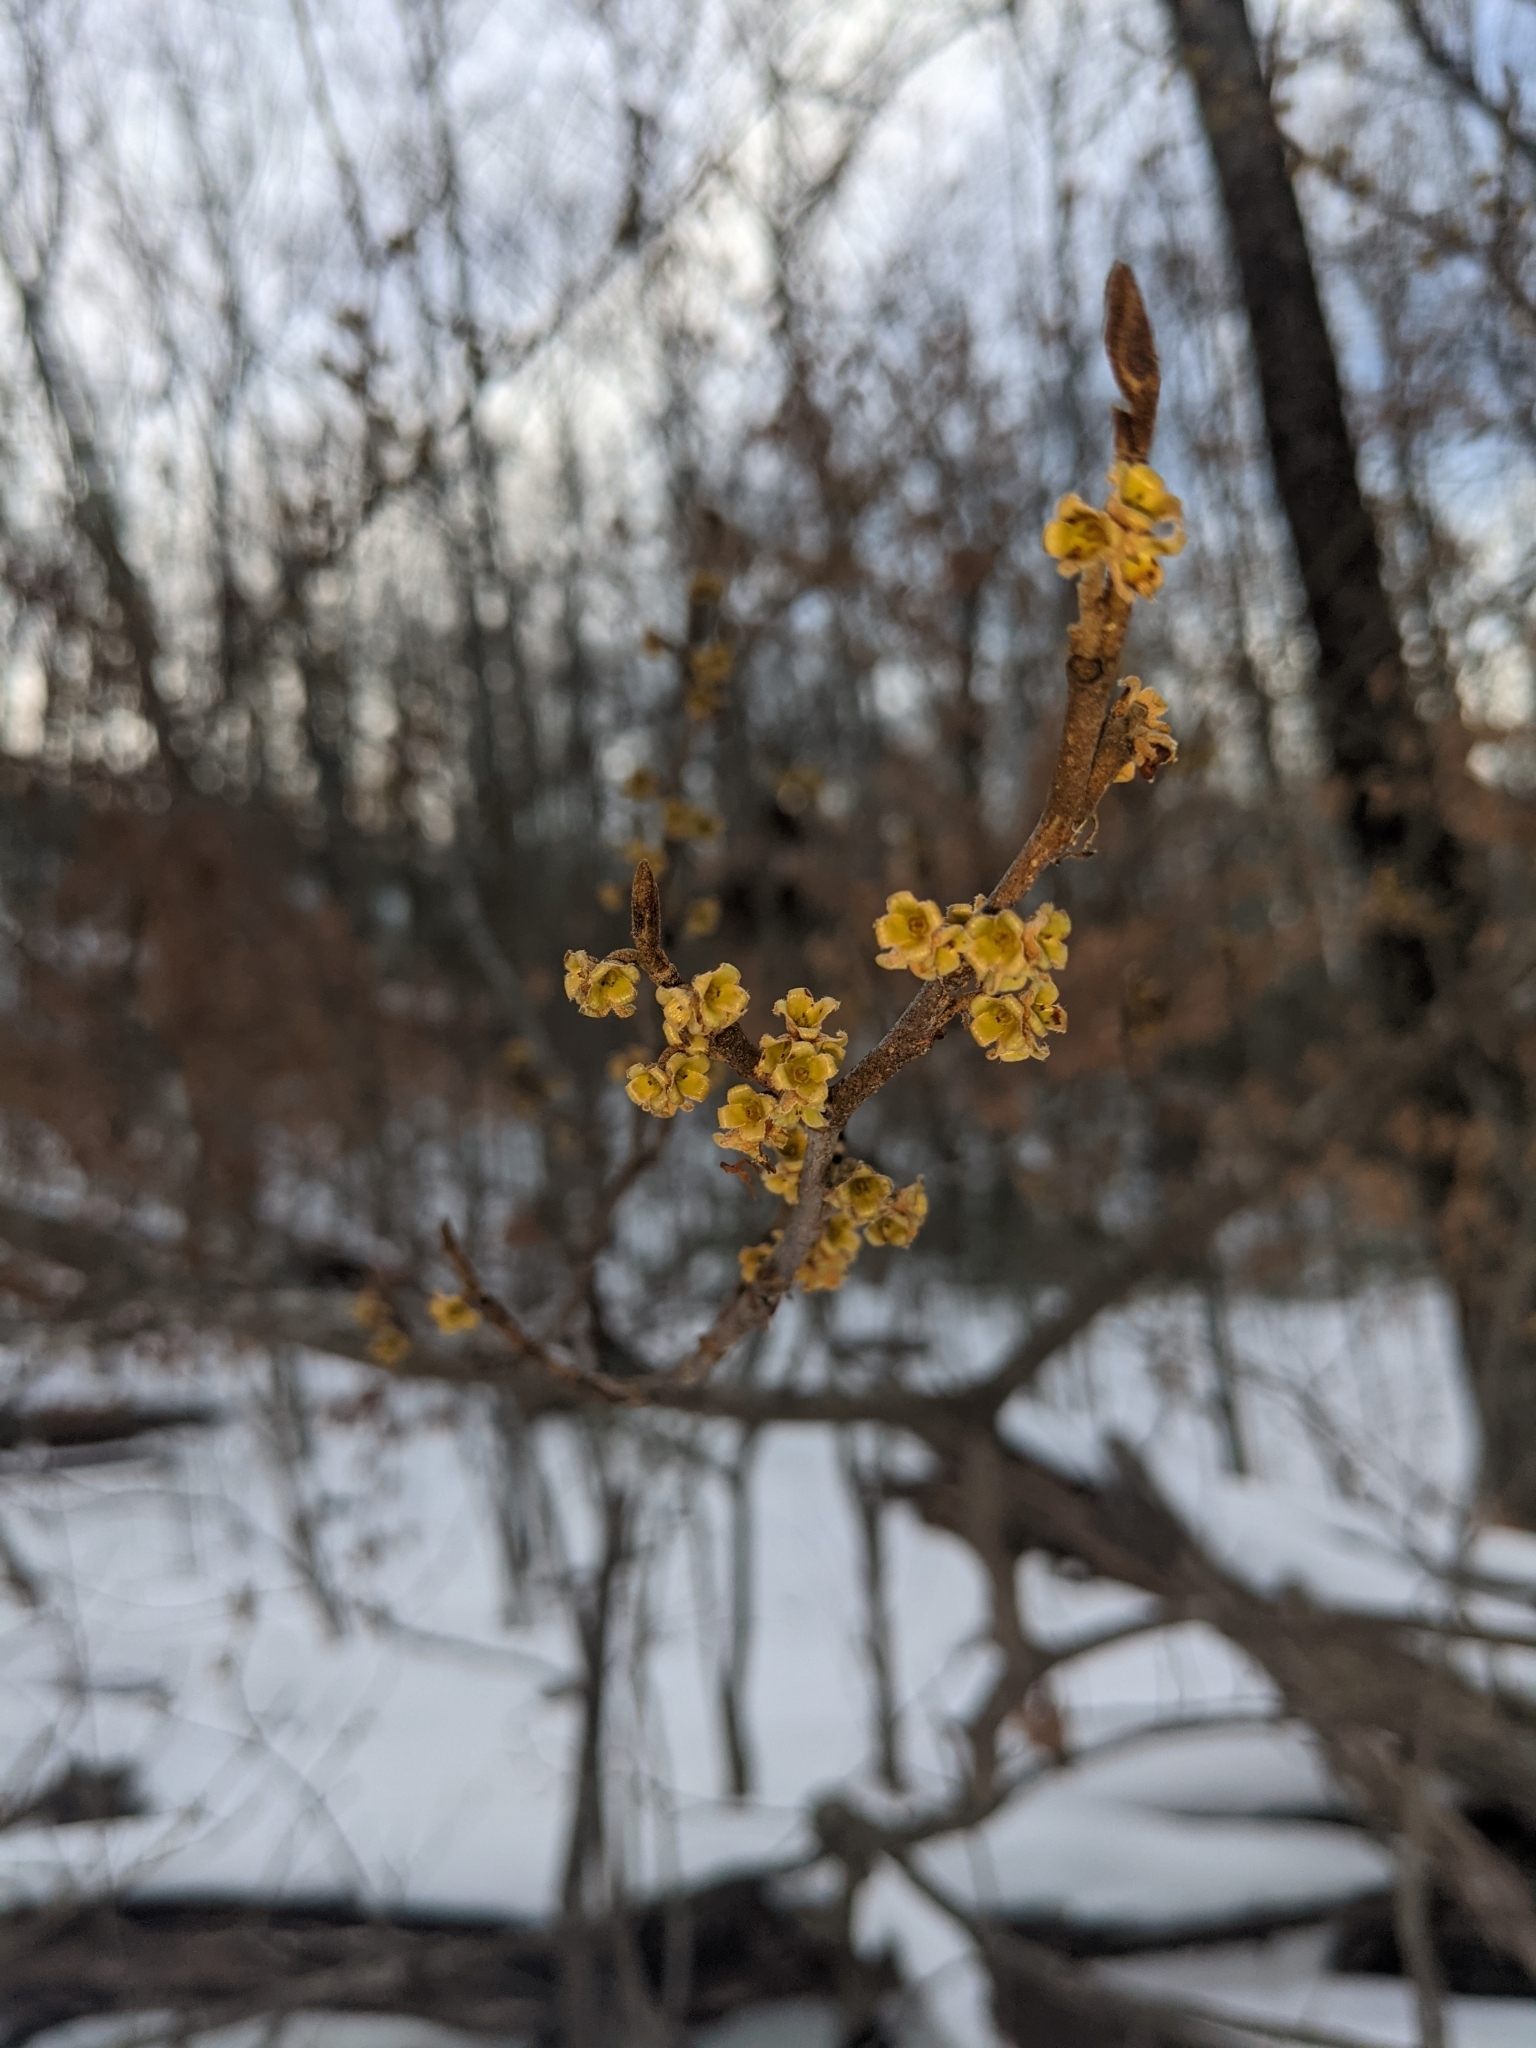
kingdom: Plantae
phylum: Tracheophyta
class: Magnoliopsida
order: Saxifragales
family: Hamamelidaceae
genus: Hamamelis
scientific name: Hamamelis virginiana
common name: Witch-hazel
